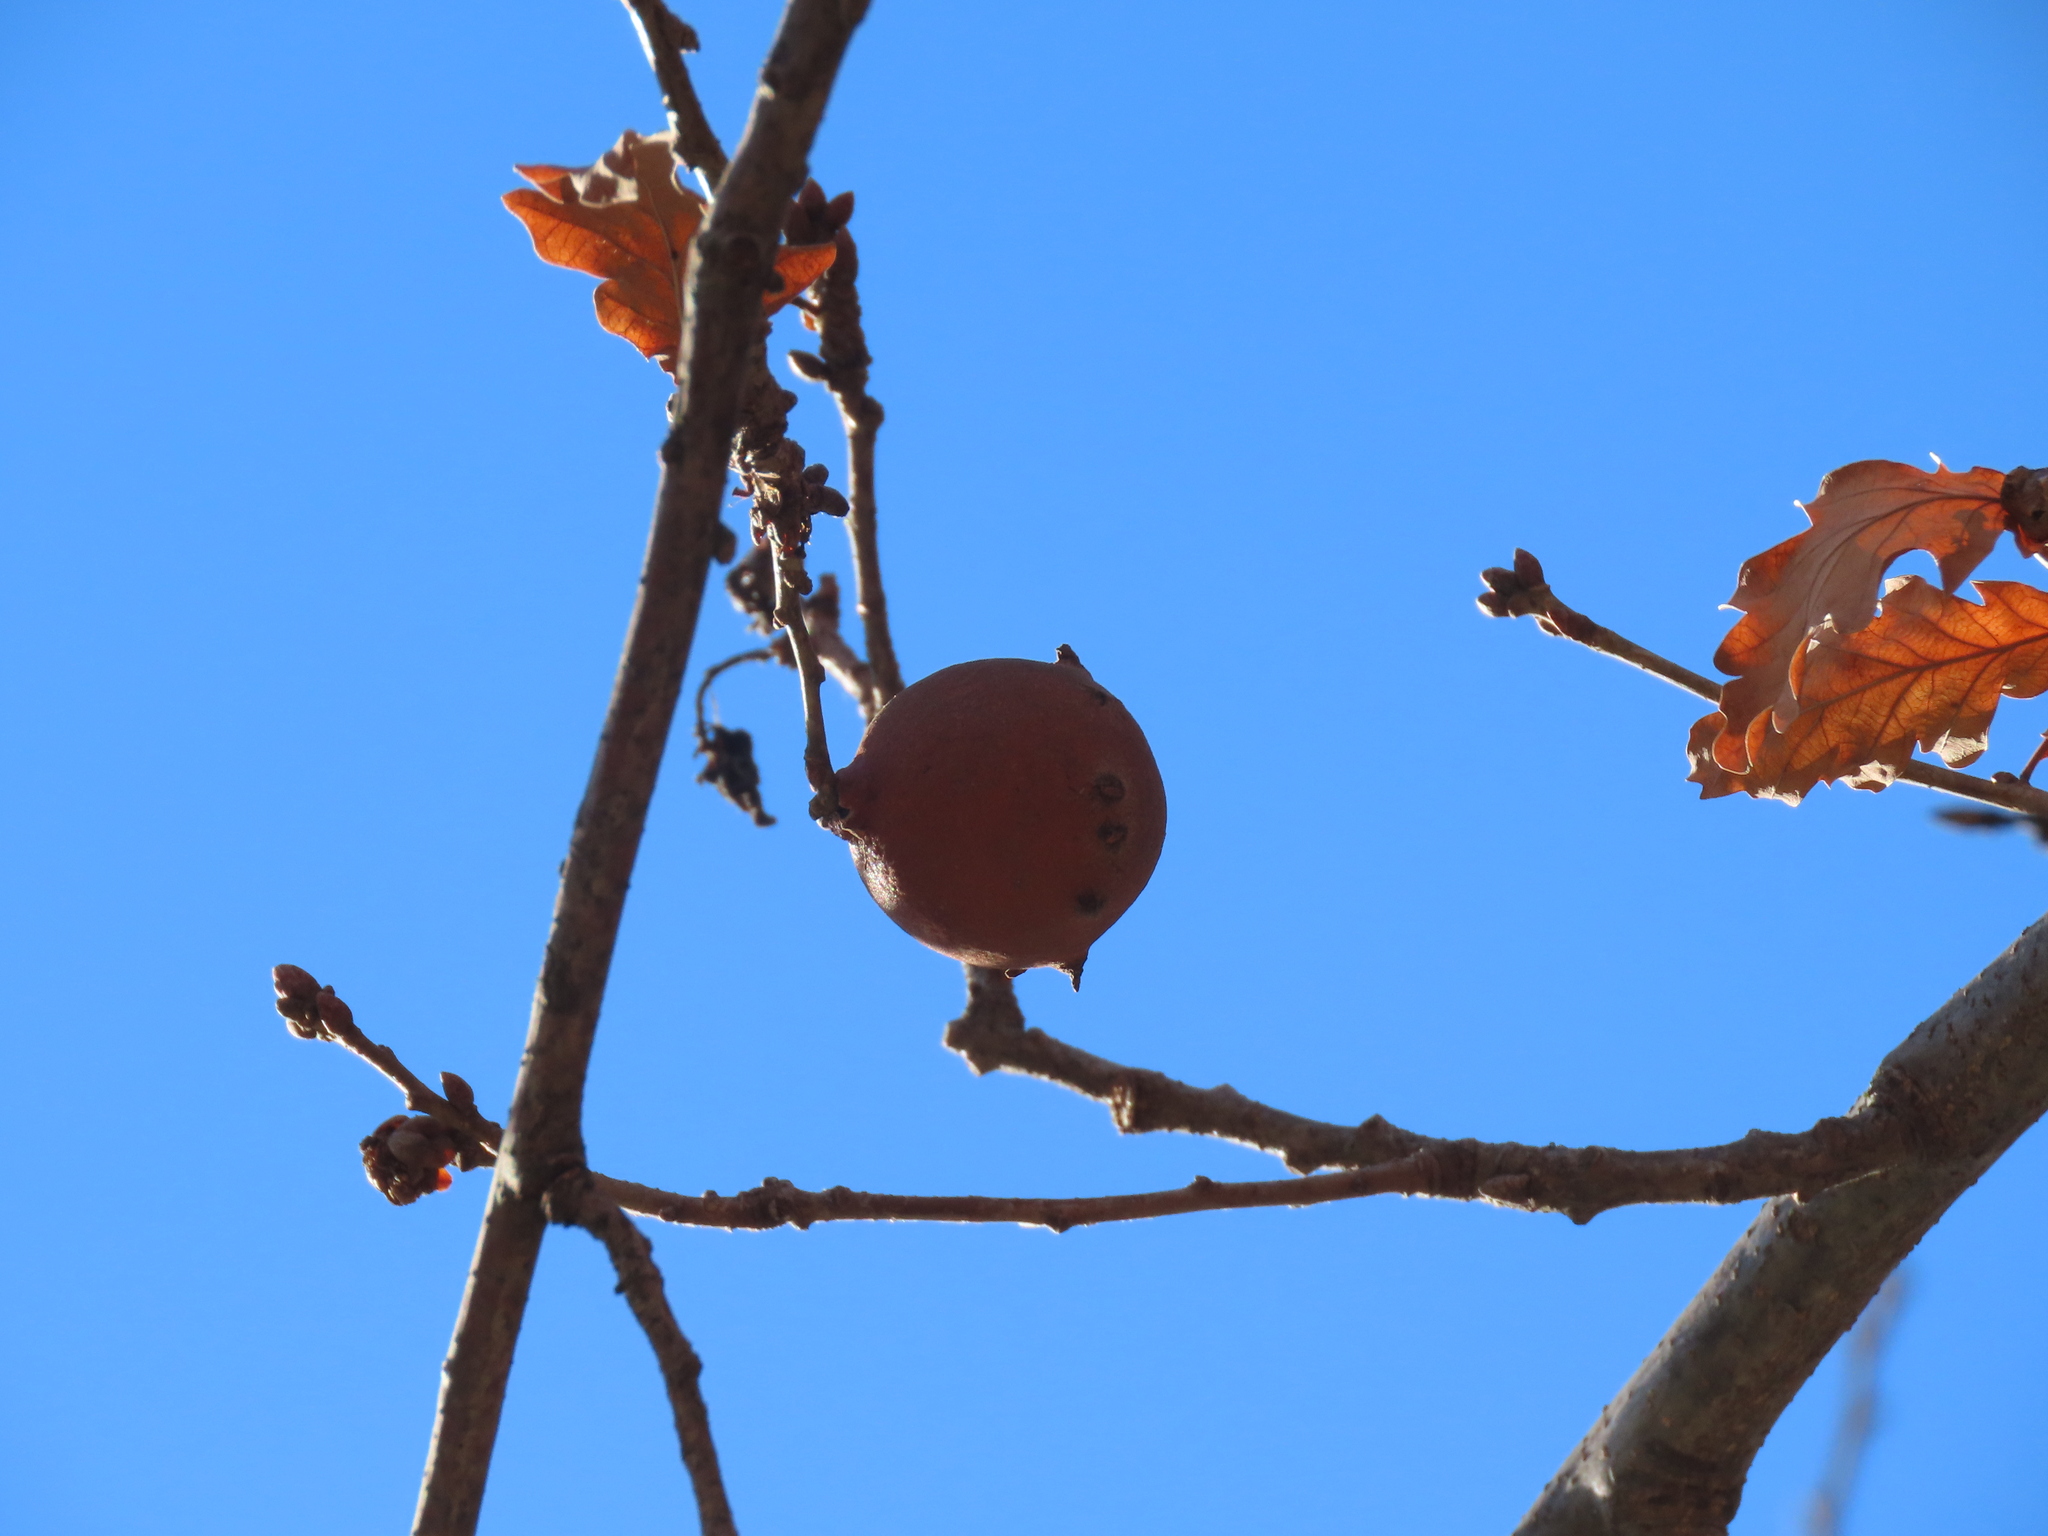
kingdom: Animalia
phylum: Arthropoda
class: Insecta
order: Hymenoptera
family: Cynipidae
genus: Andricus
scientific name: Andricus quercustozae
